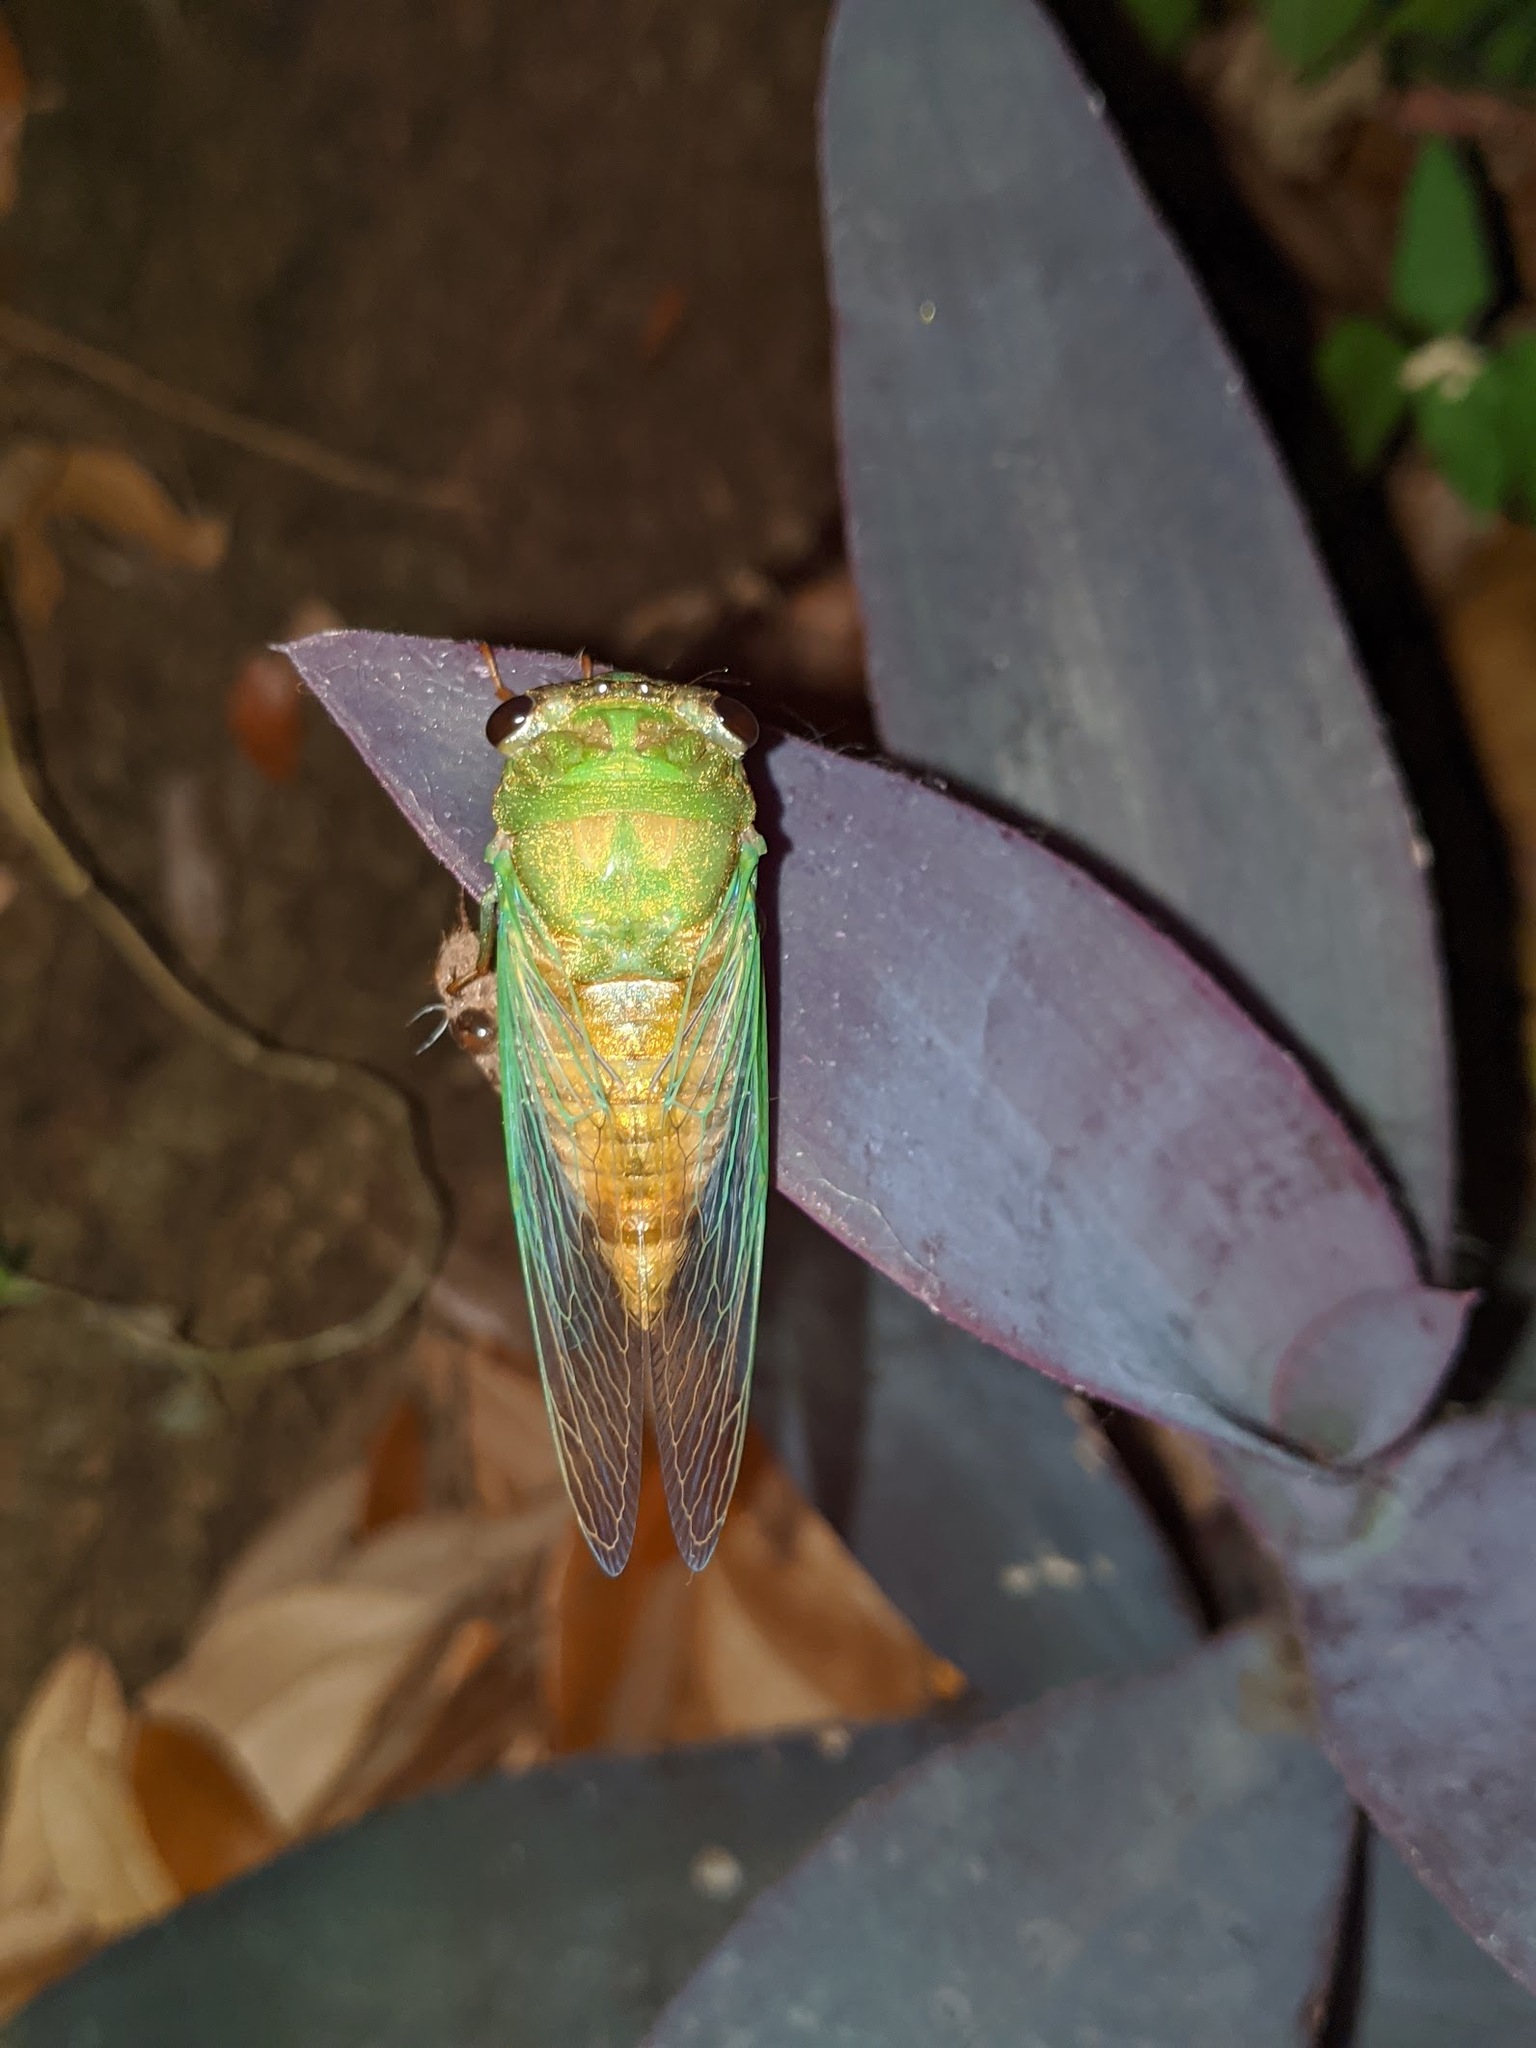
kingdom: Animalia
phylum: Arthropoda
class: Insecta
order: Hemiptera
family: Cicadidae
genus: Neotibicen
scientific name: Neotibicen superbus
